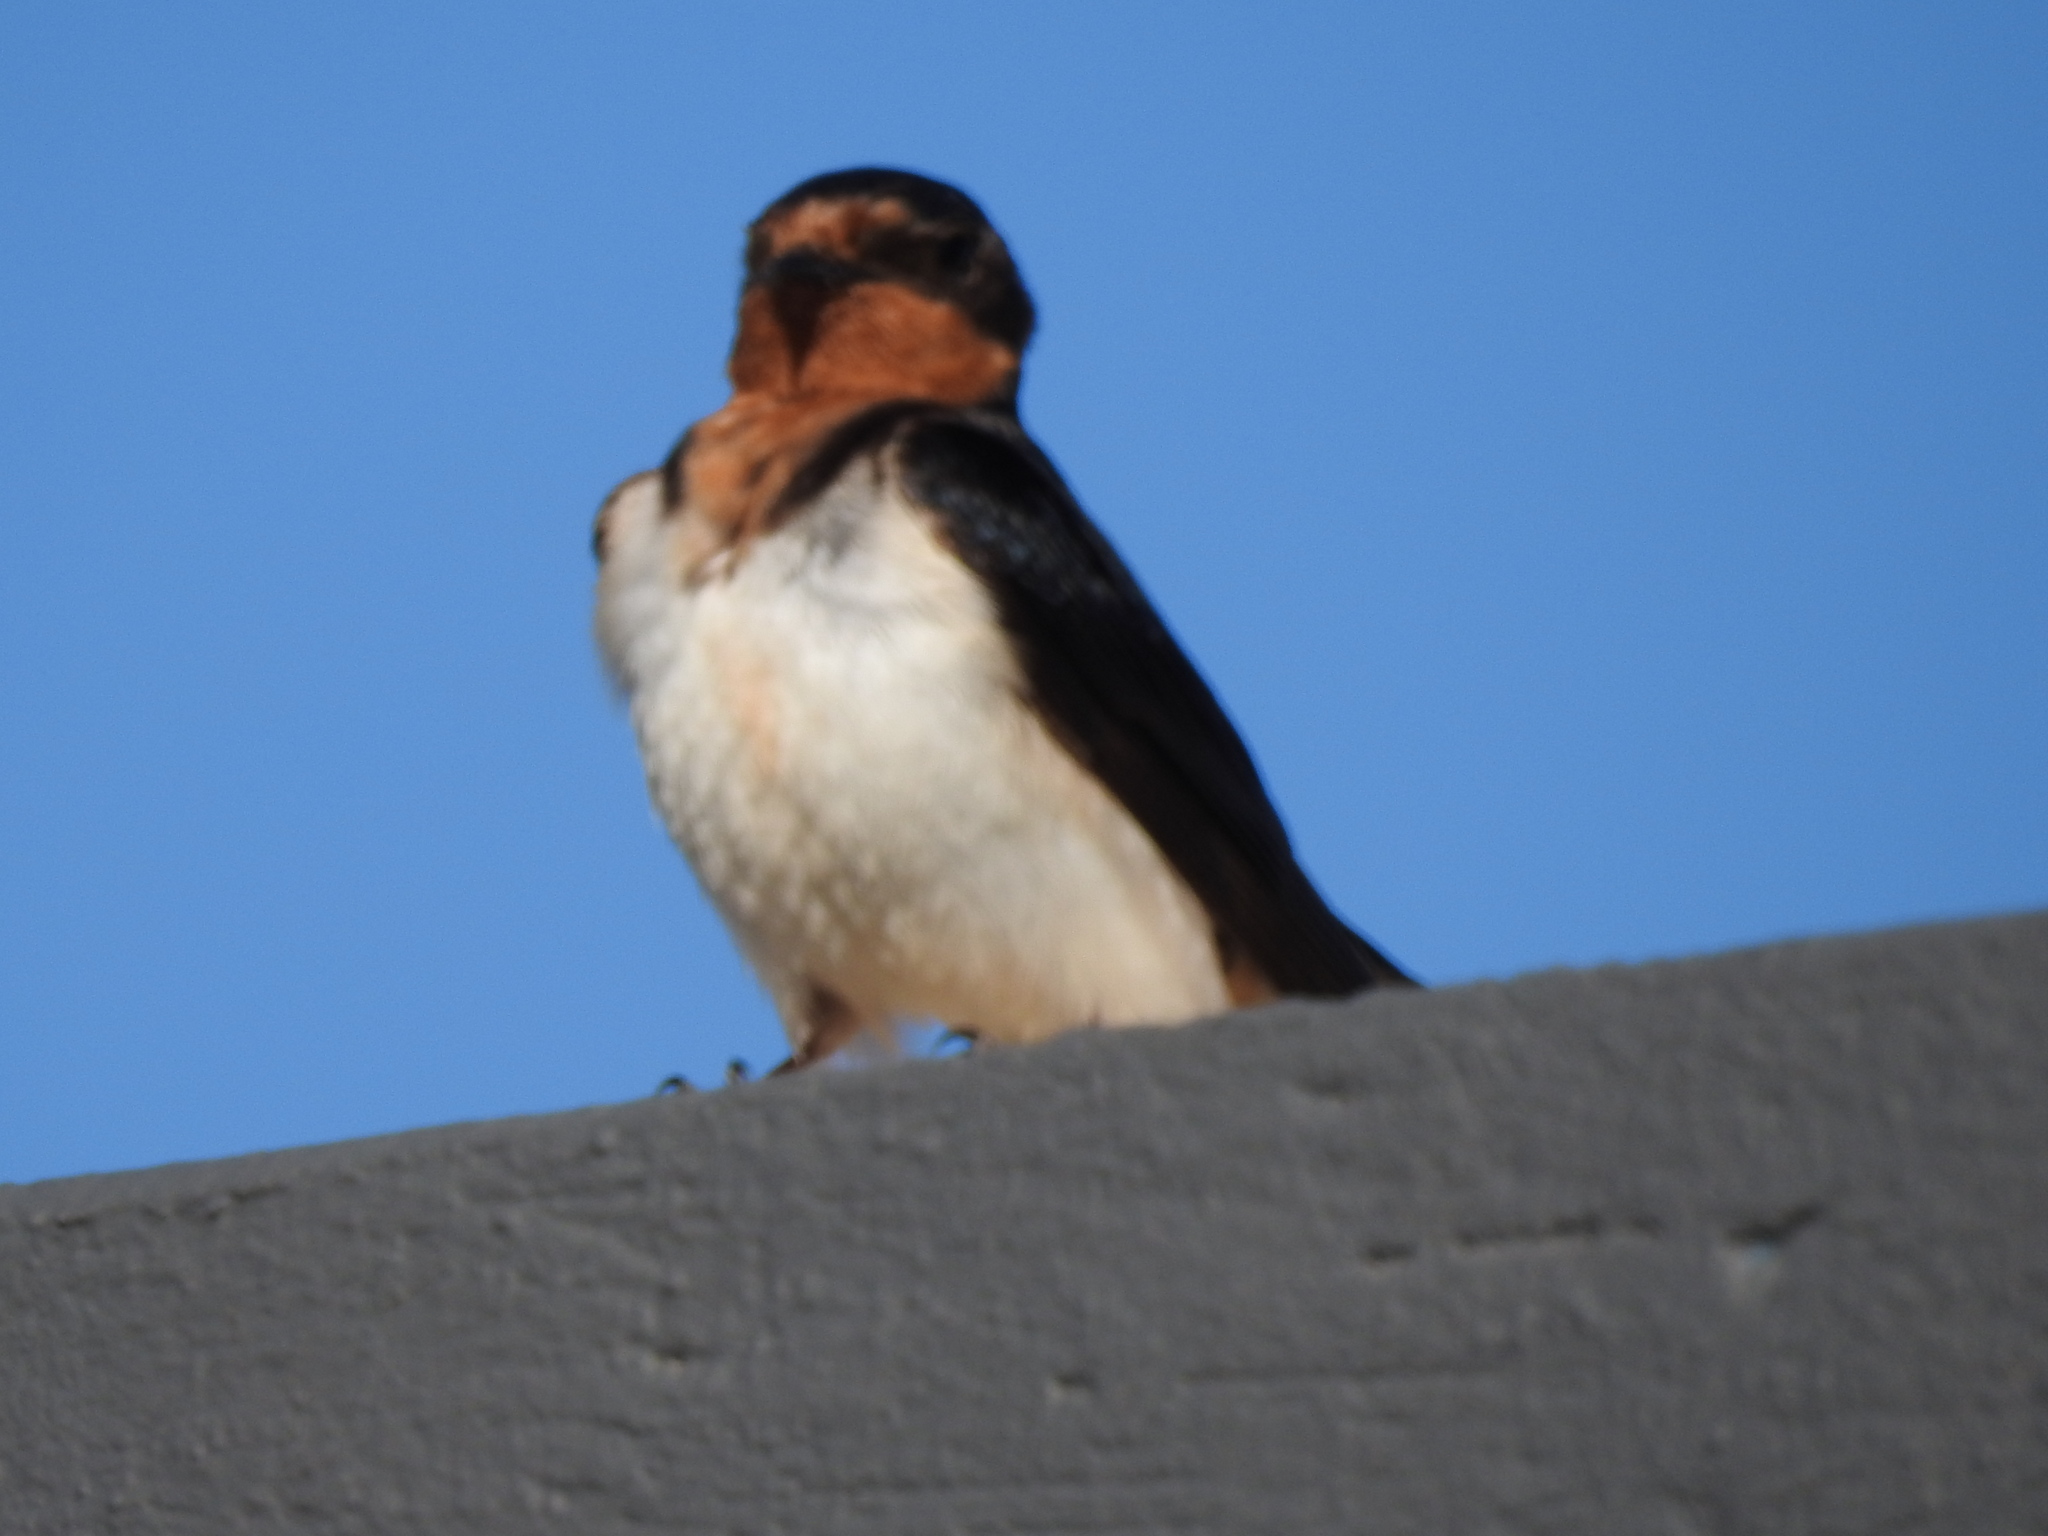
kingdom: Animalia
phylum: Chordata
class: Aves
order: Passeriformes
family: Hirundinidae
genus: Hirundo
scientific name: Hirundo rustica
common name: Barn swallow
